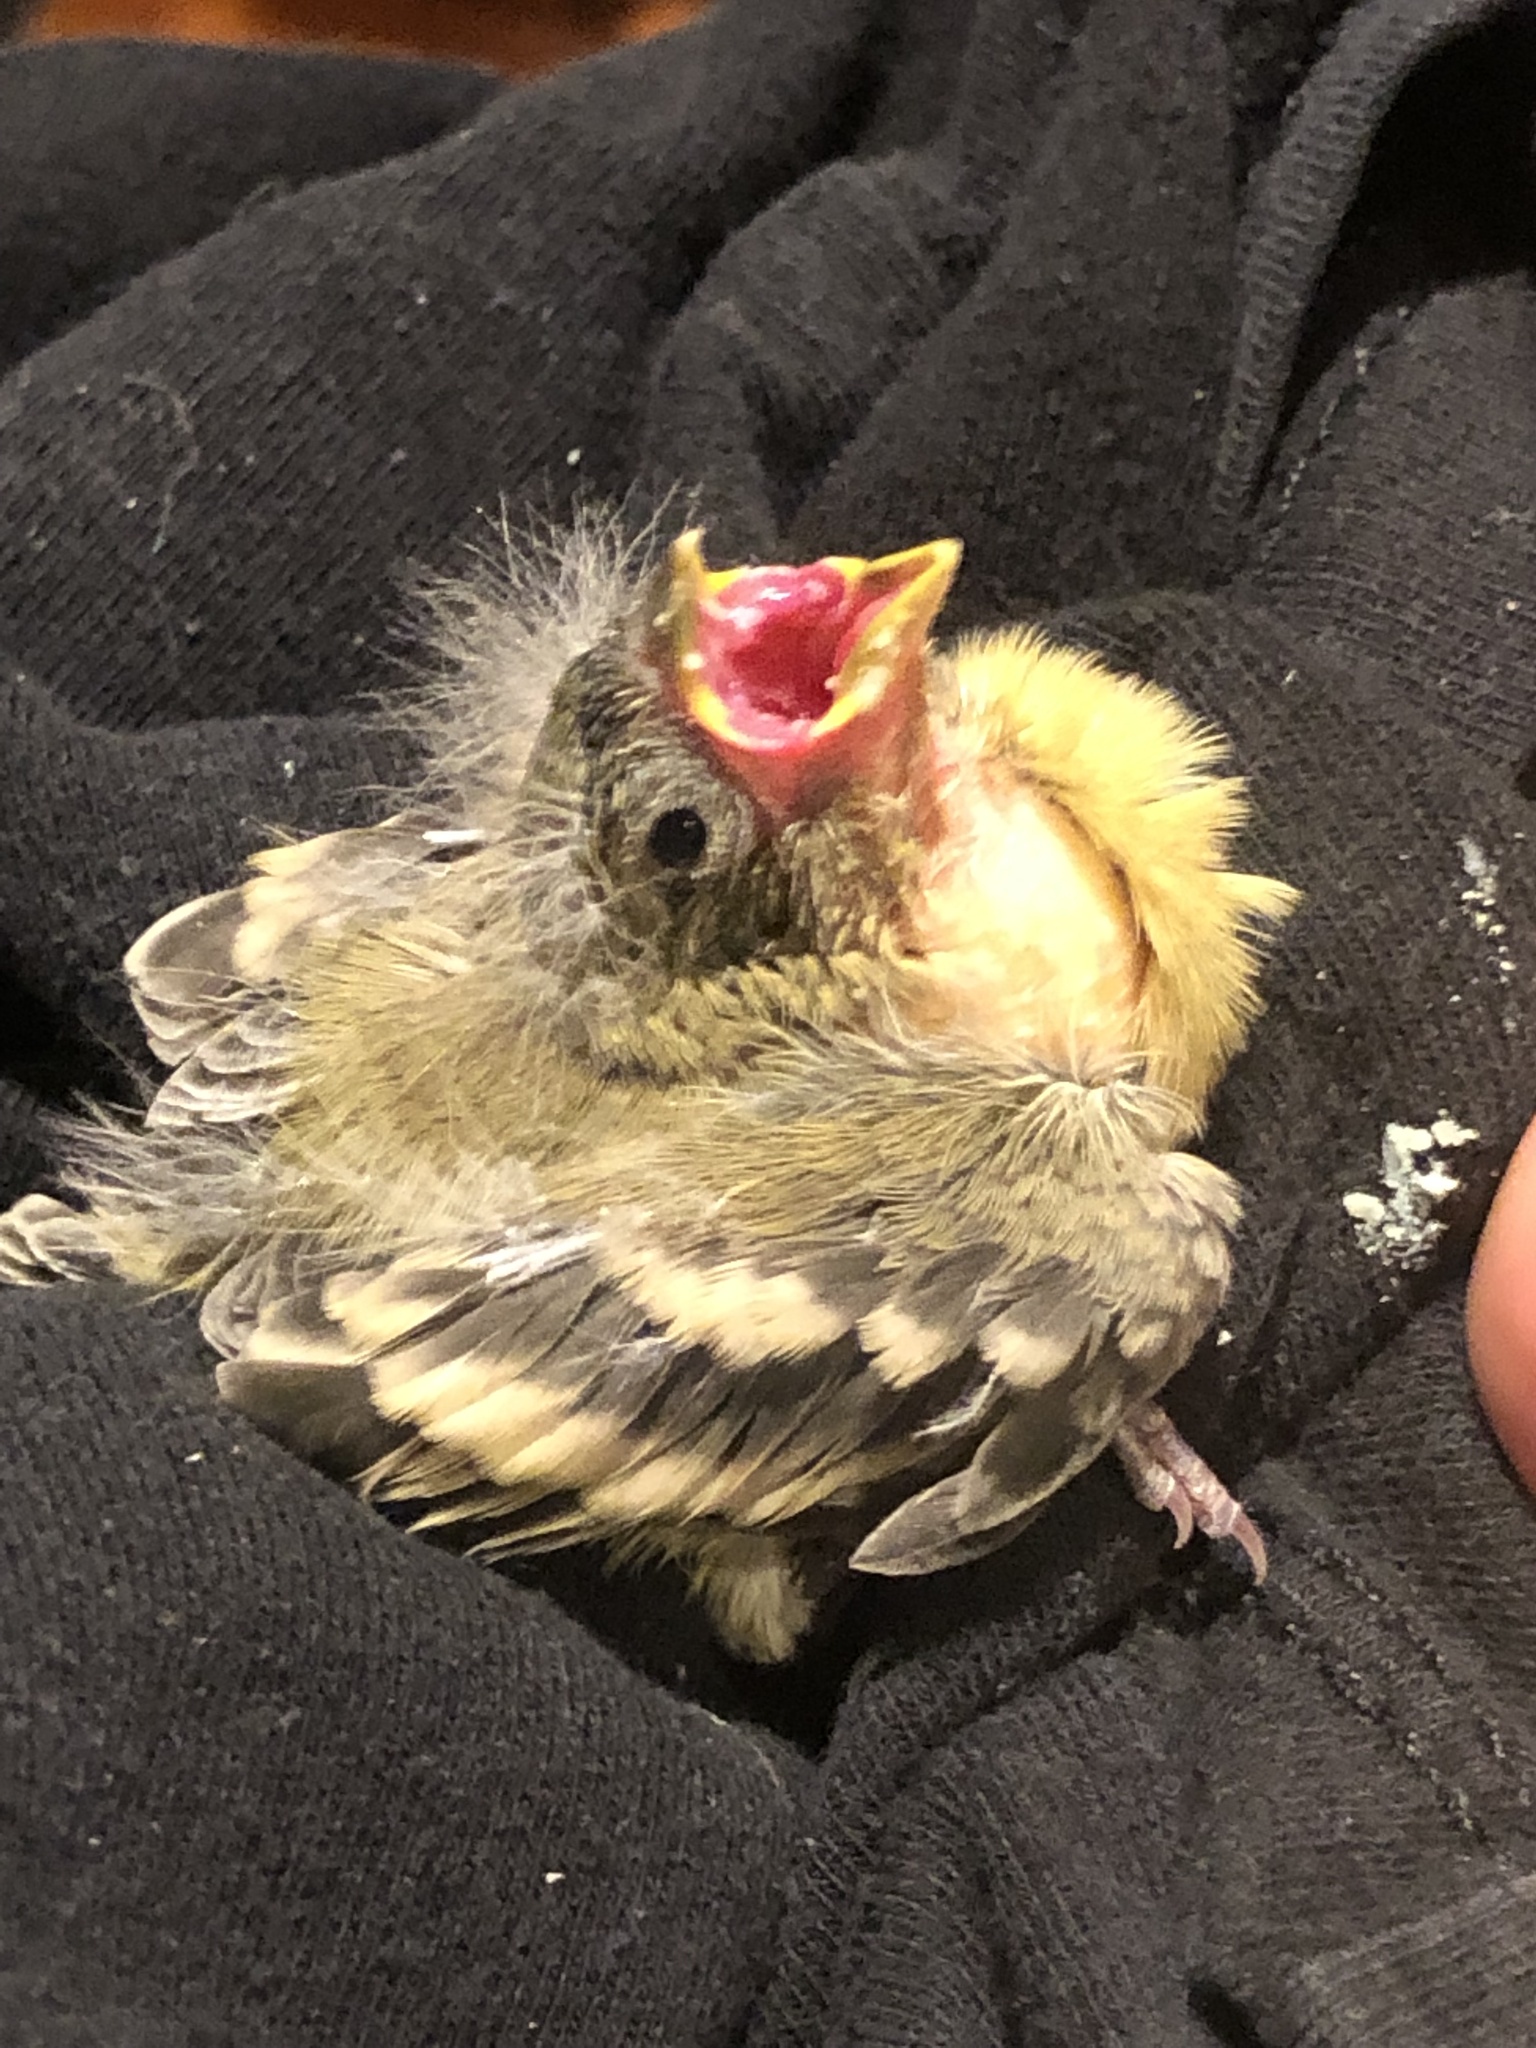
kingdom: Animalia
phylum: Chordata
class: Aves
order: Passeriformes
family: Fringillidae
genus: Spinus
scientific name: Spinus psaltria
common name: Lesser goldfinch
